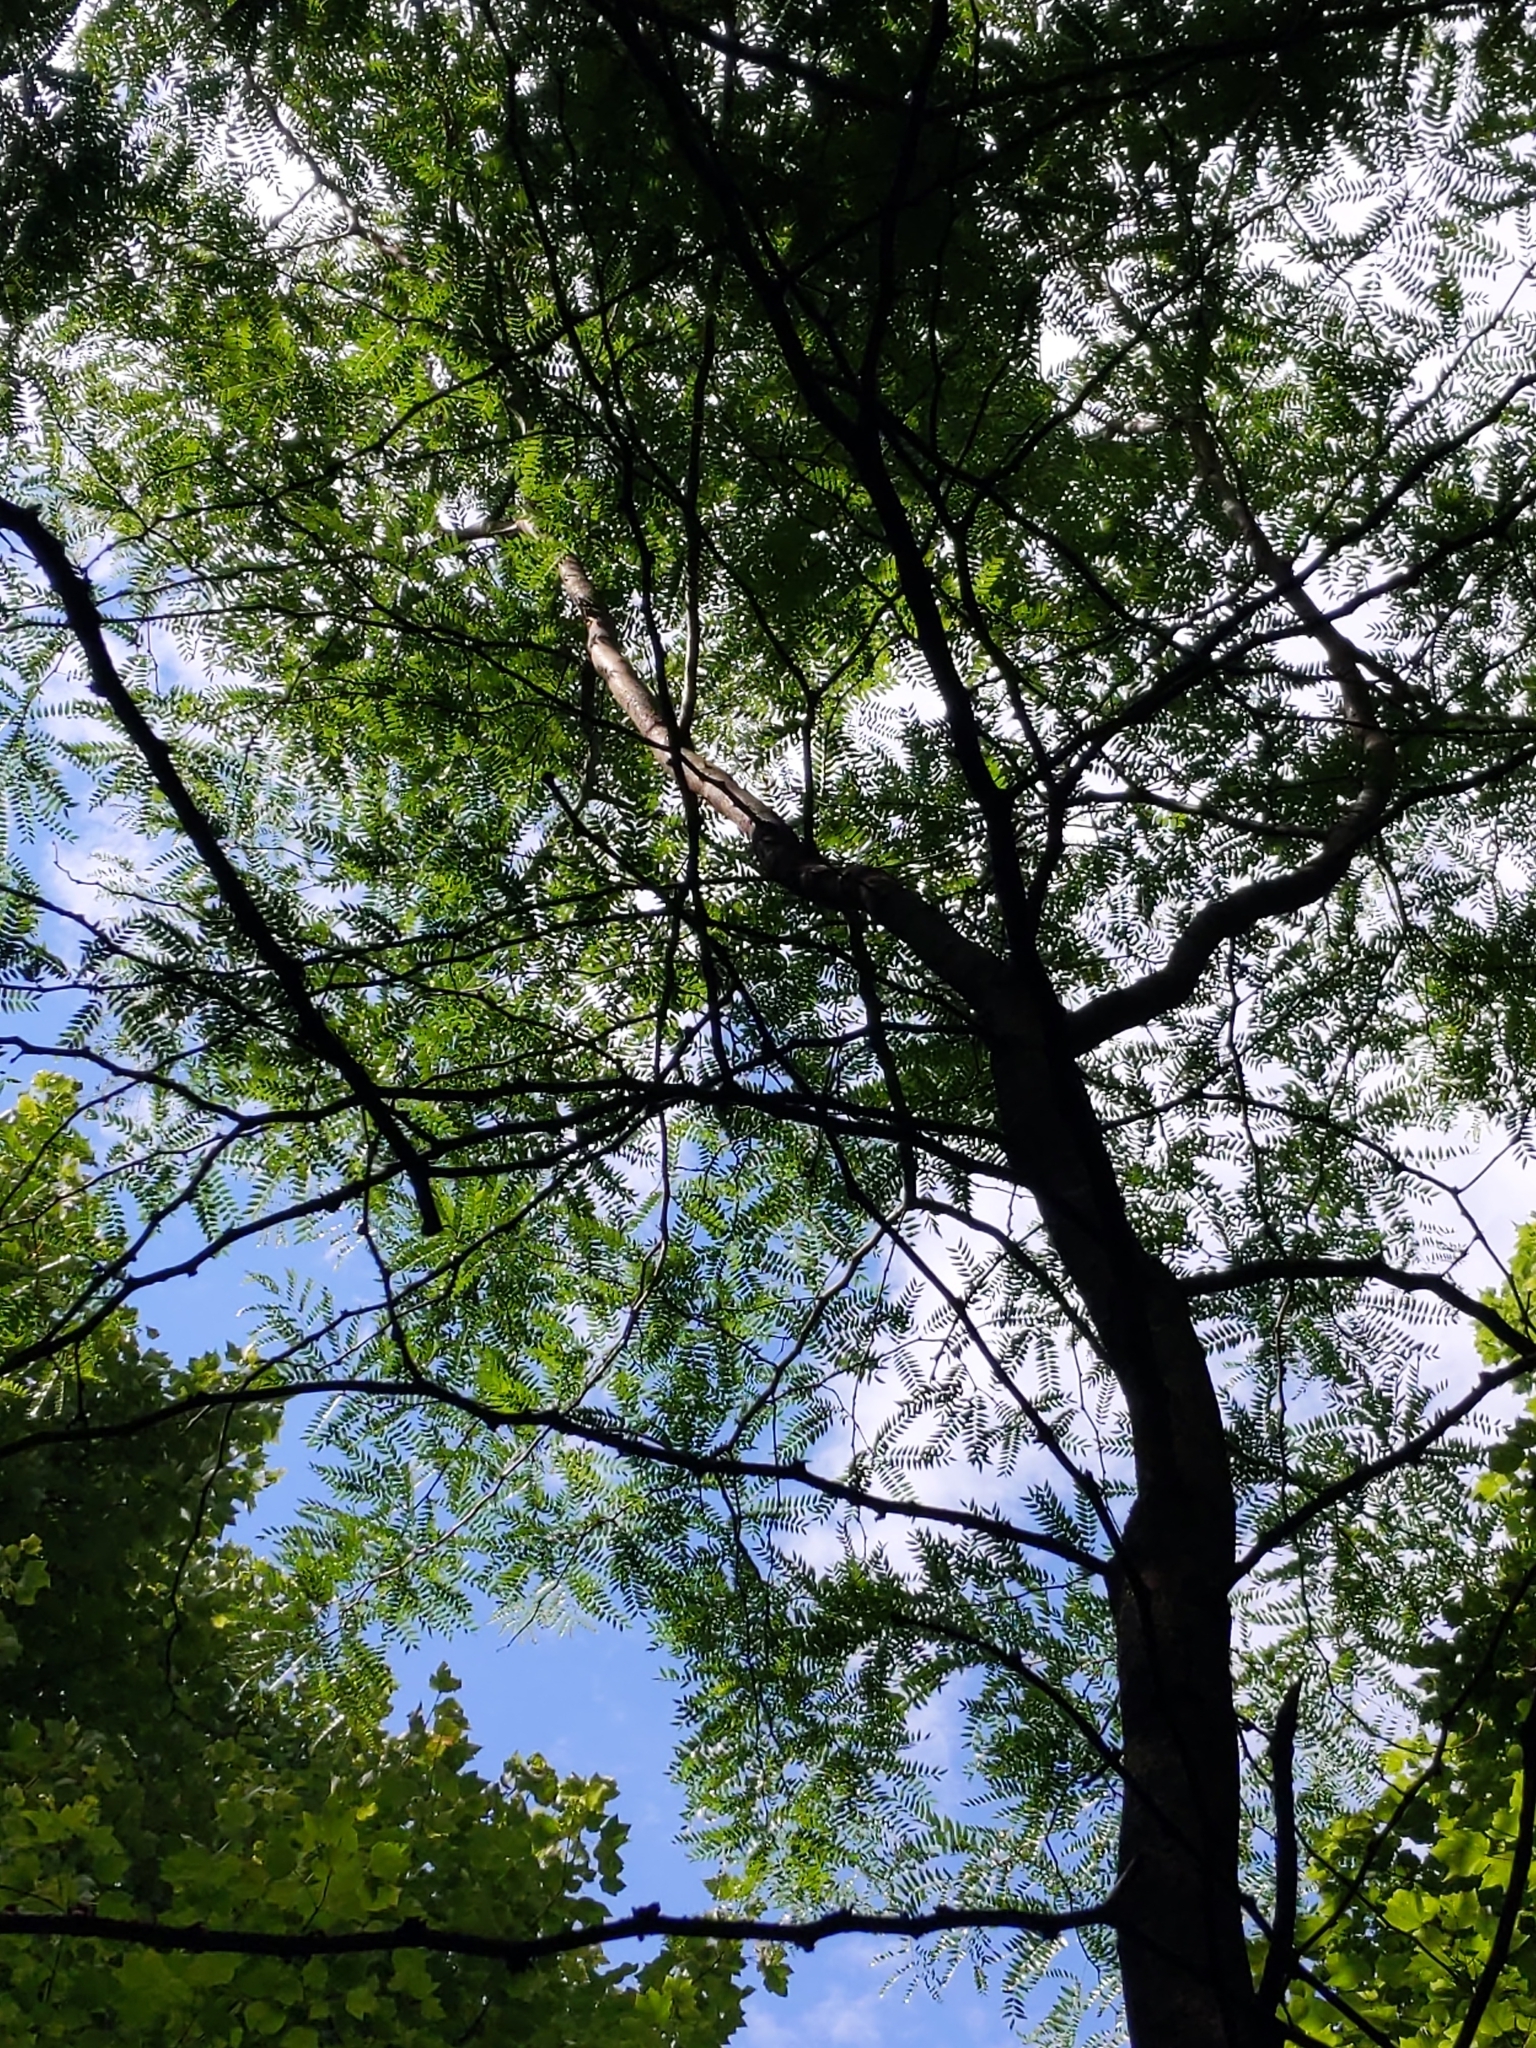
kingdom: Plantae
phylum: Tracheophyta
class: Magnoliopsida
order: Fabales
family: Fabaceae
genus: Gleditsia
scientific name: Gleditsia triacanthos
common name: Common honeylocust
